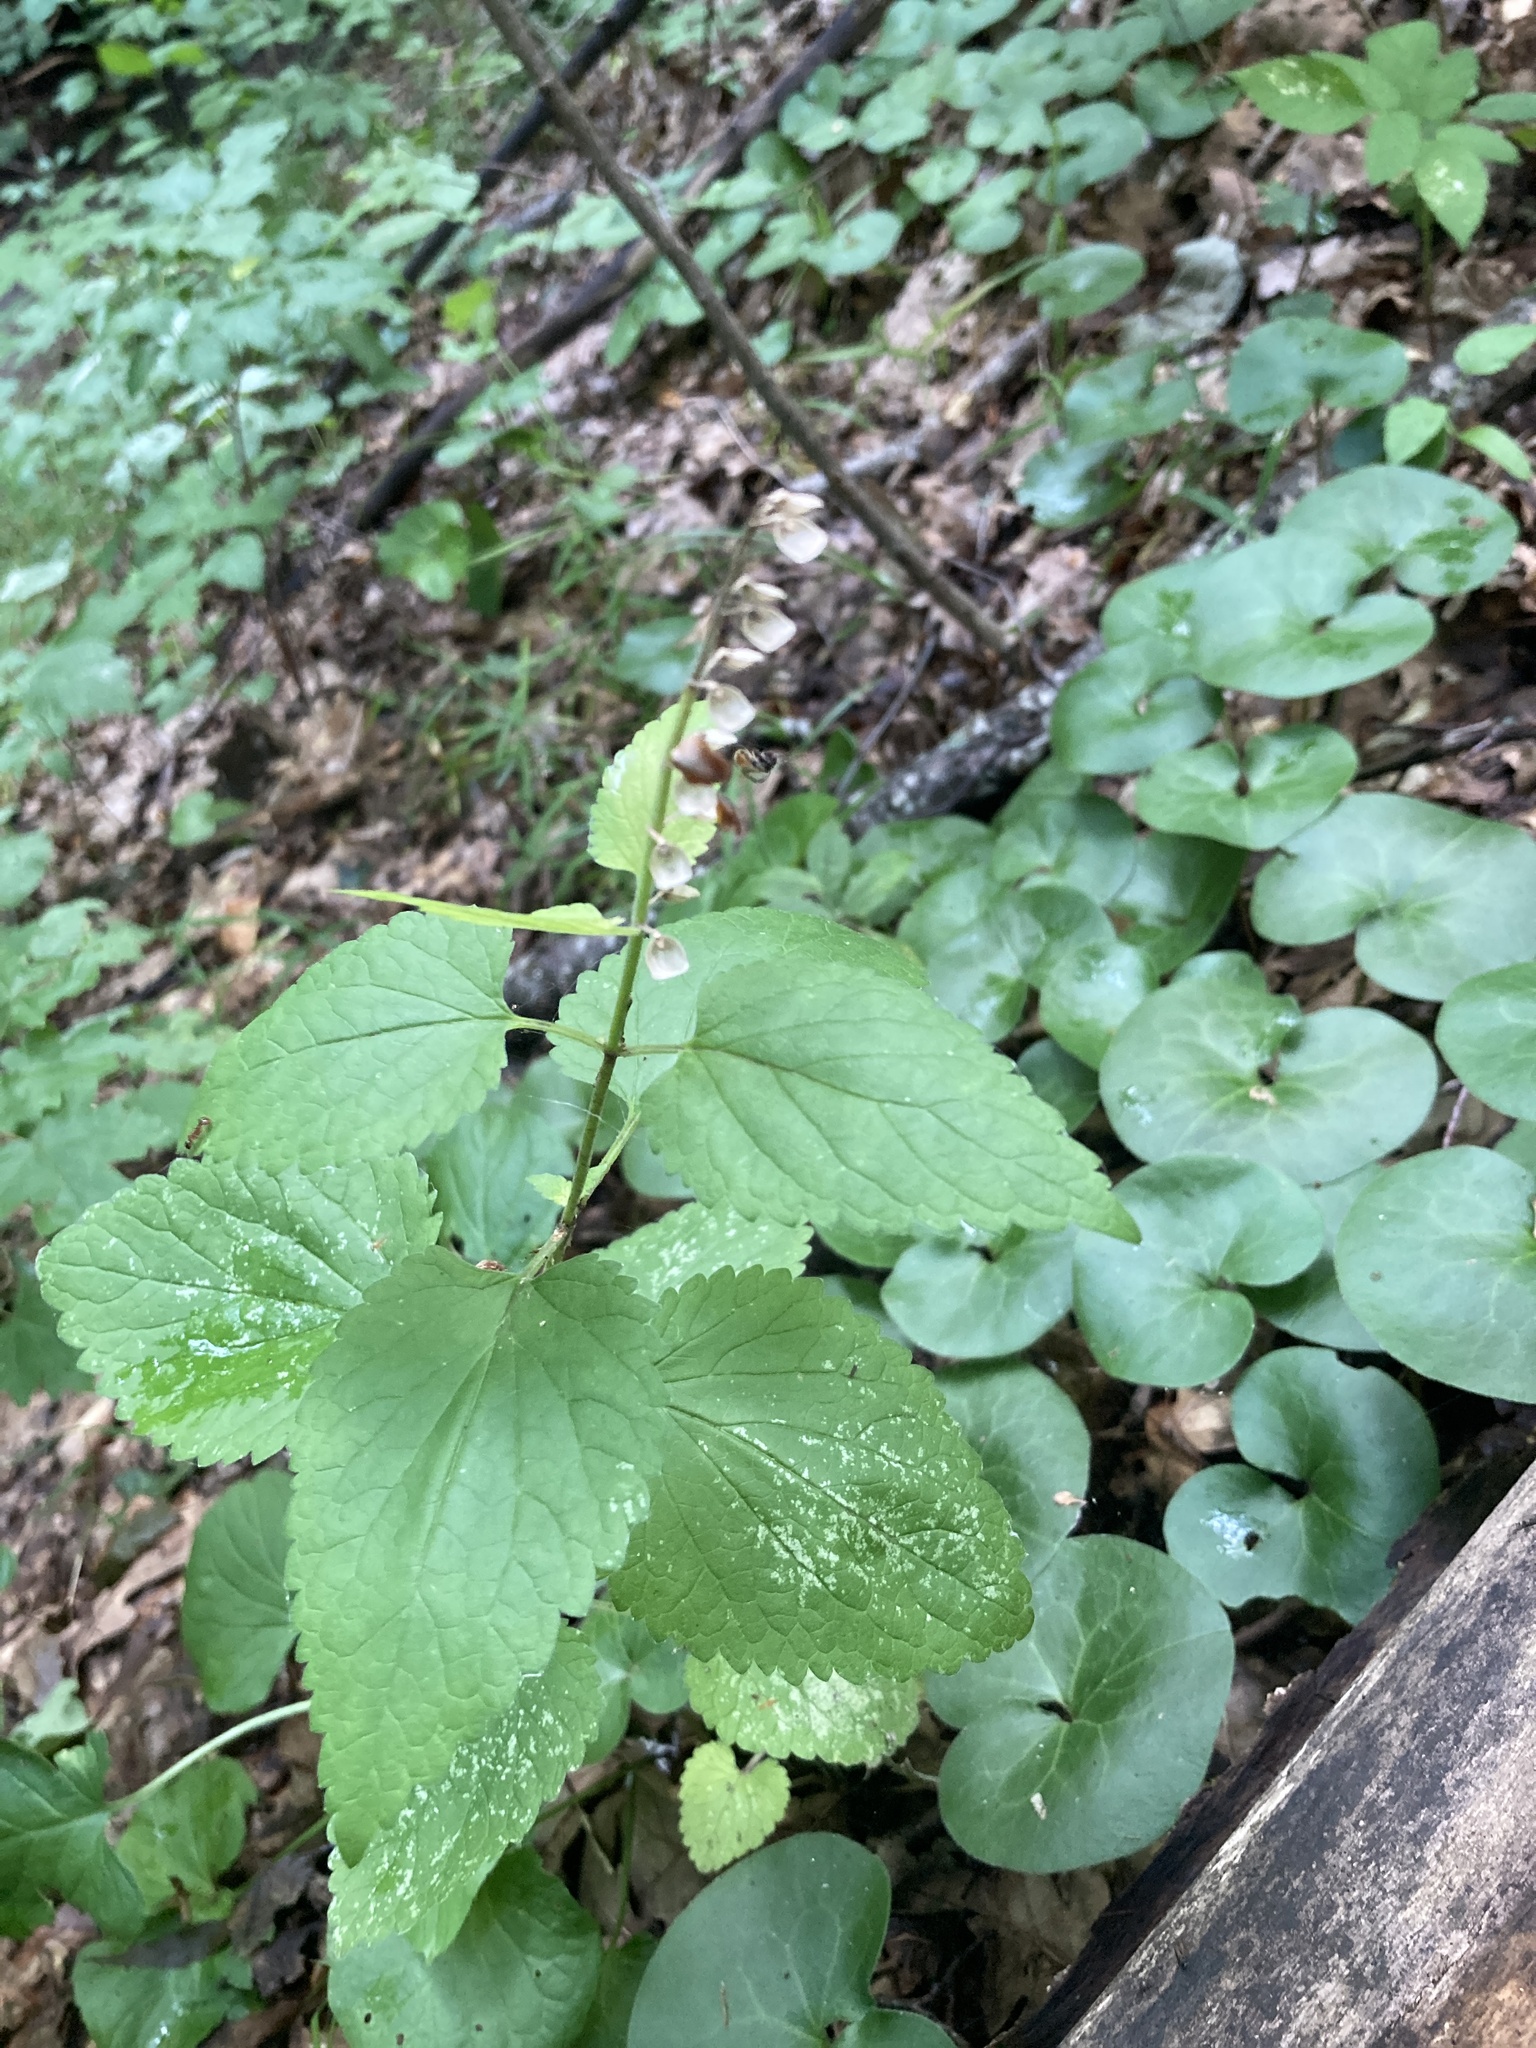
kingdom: Plantae
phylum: Tracheophyta
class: Magnoliopsida
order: Lamiales
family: Lamiaceae
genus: Scutellaria
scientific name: Scutellaria altissima
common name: Somerset skullcap
